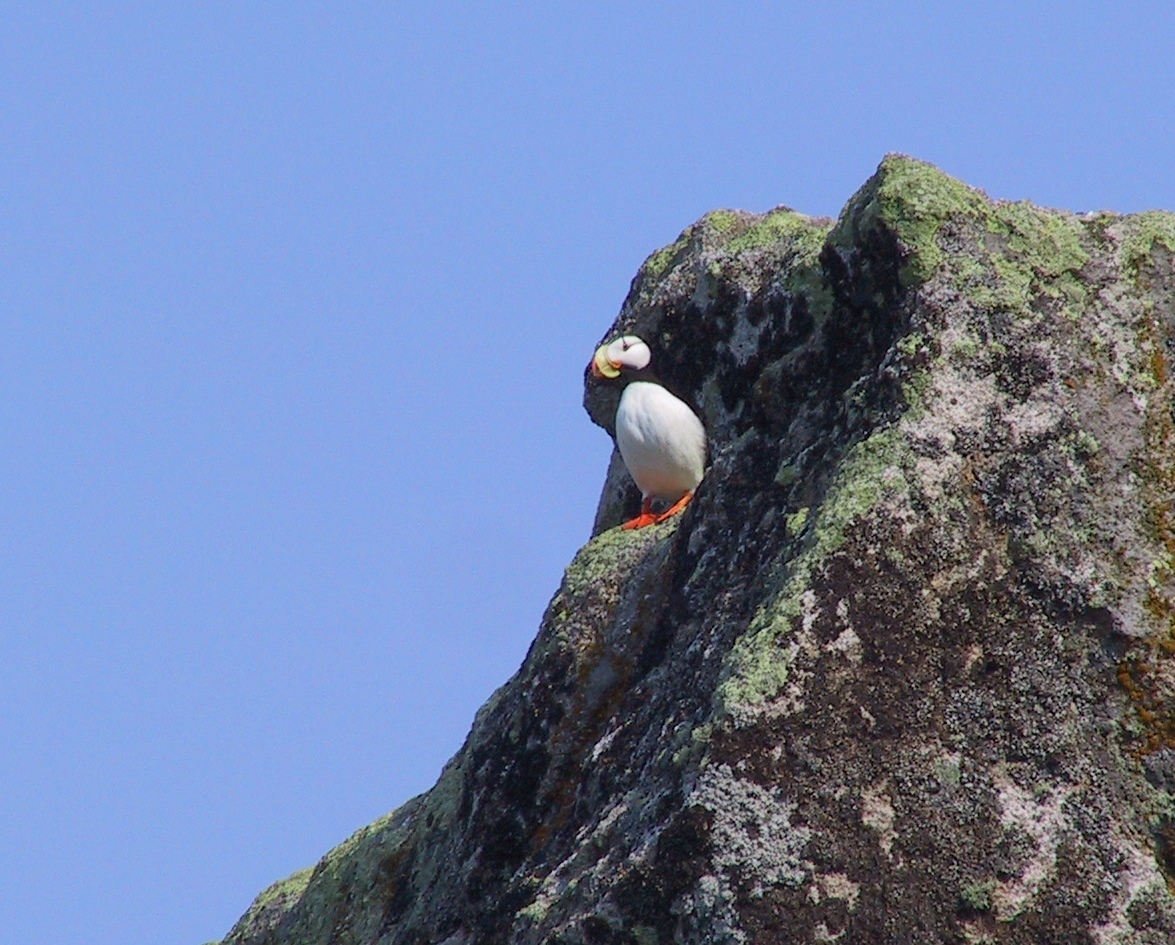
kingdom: Animalia
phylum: Chordata
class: Aves
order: Charadriiformes
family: Alcidae
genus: Fratercula
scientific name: Fratercula corniculata
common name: Horned puffin
